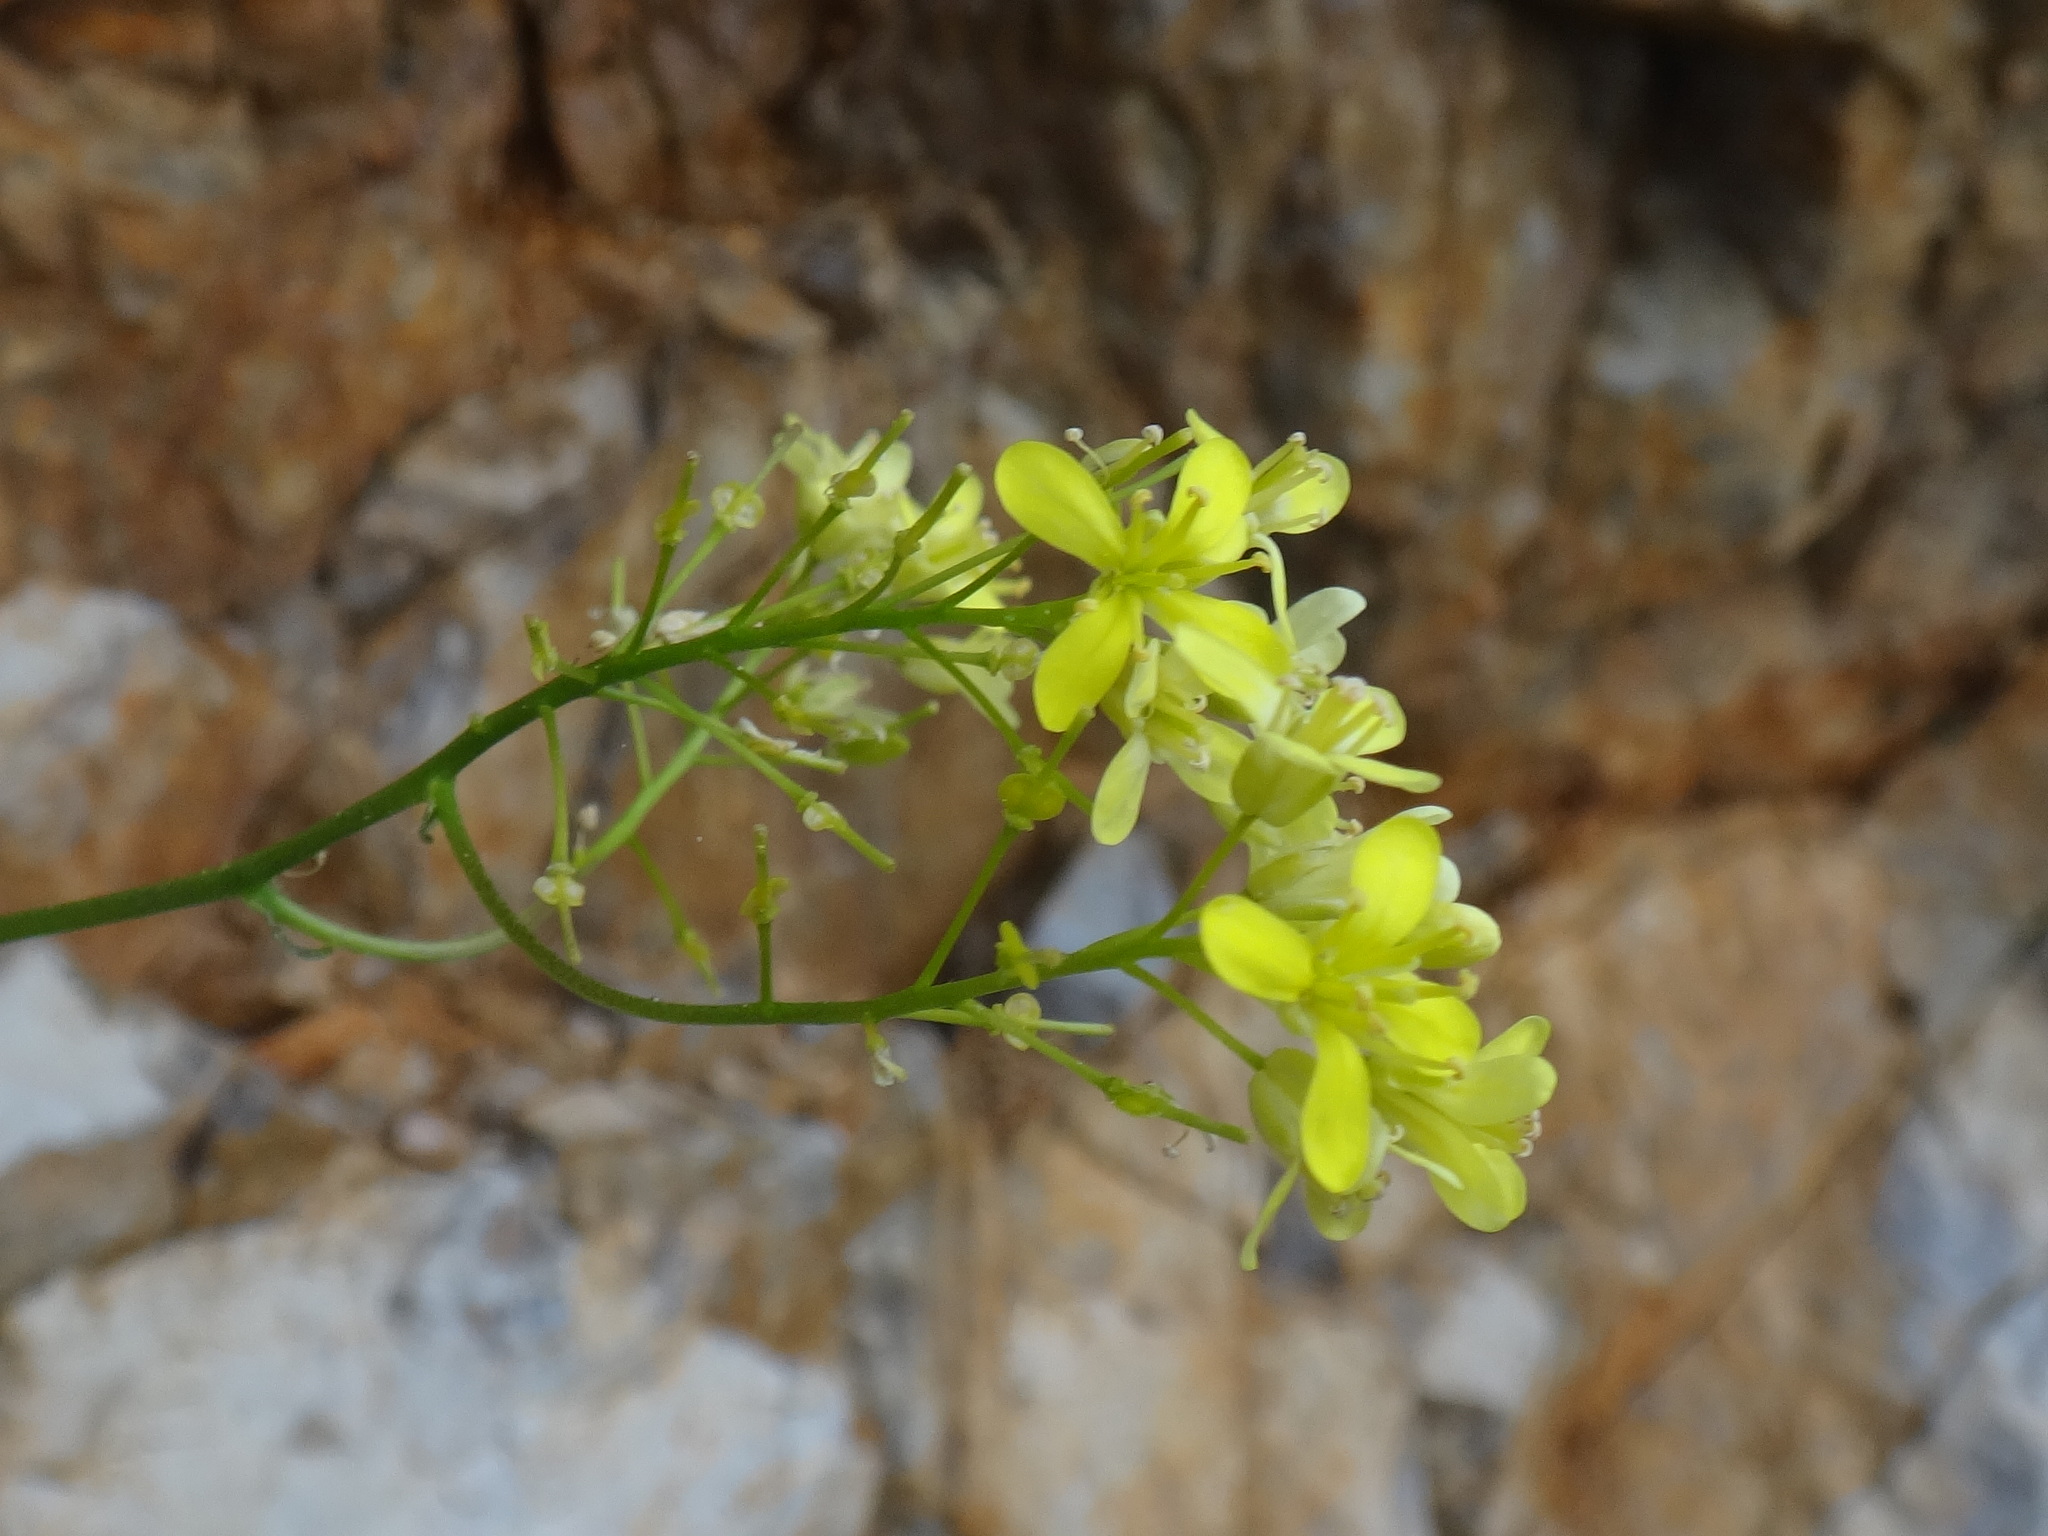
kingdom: Plantae
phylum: Tracheophyta
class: Magnoliopsida
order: Brassicales
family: Brassicaceae
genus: Biscutella
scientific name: Biscutella laevigata
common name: Buckler mustard
